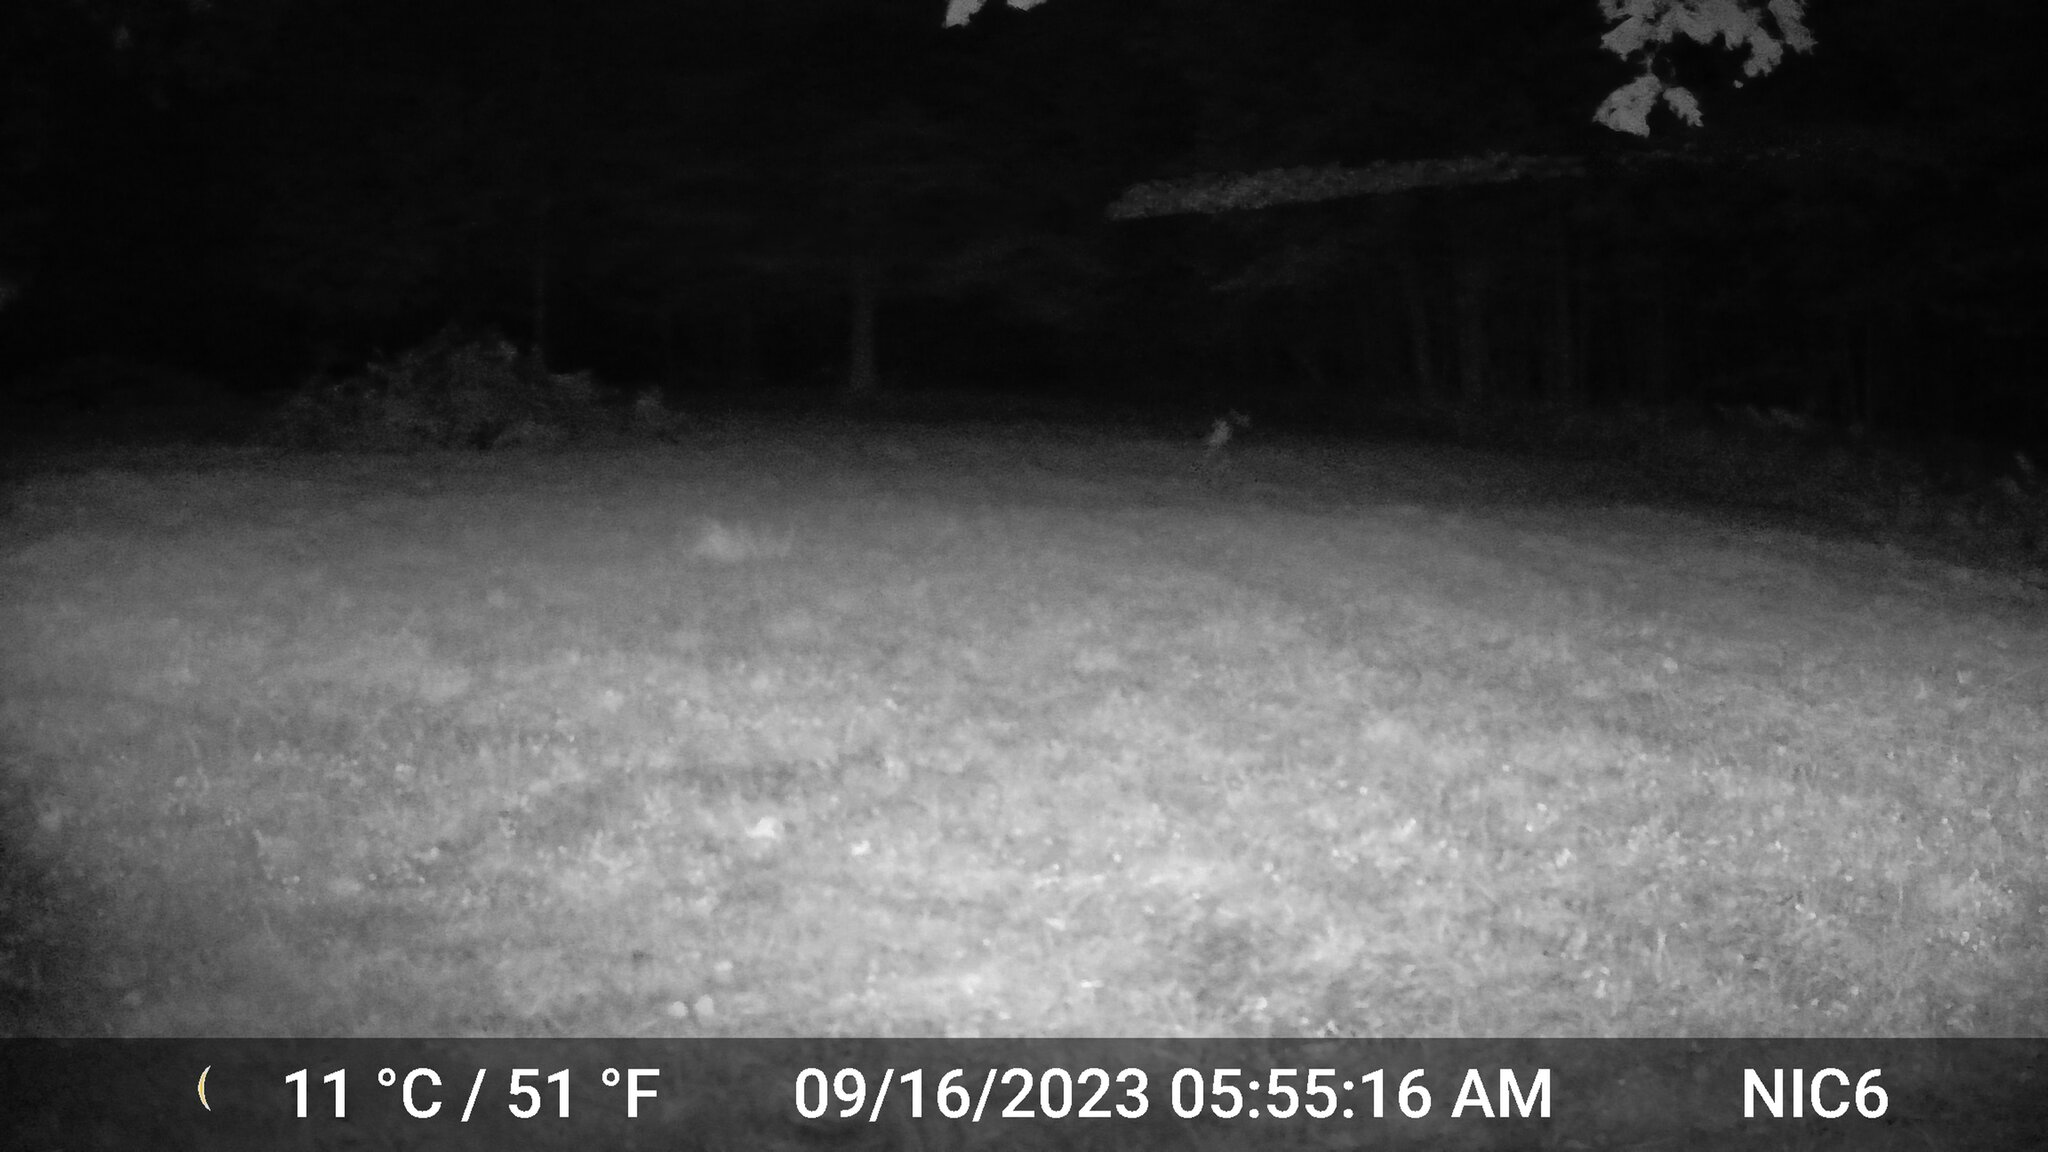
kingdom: Animalia
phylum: Chordata
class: Mammalia
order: Artiodactyla
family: Cervidae
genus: Odocoileus
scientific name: Odocoileus virginianus
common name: White-tailed deer
